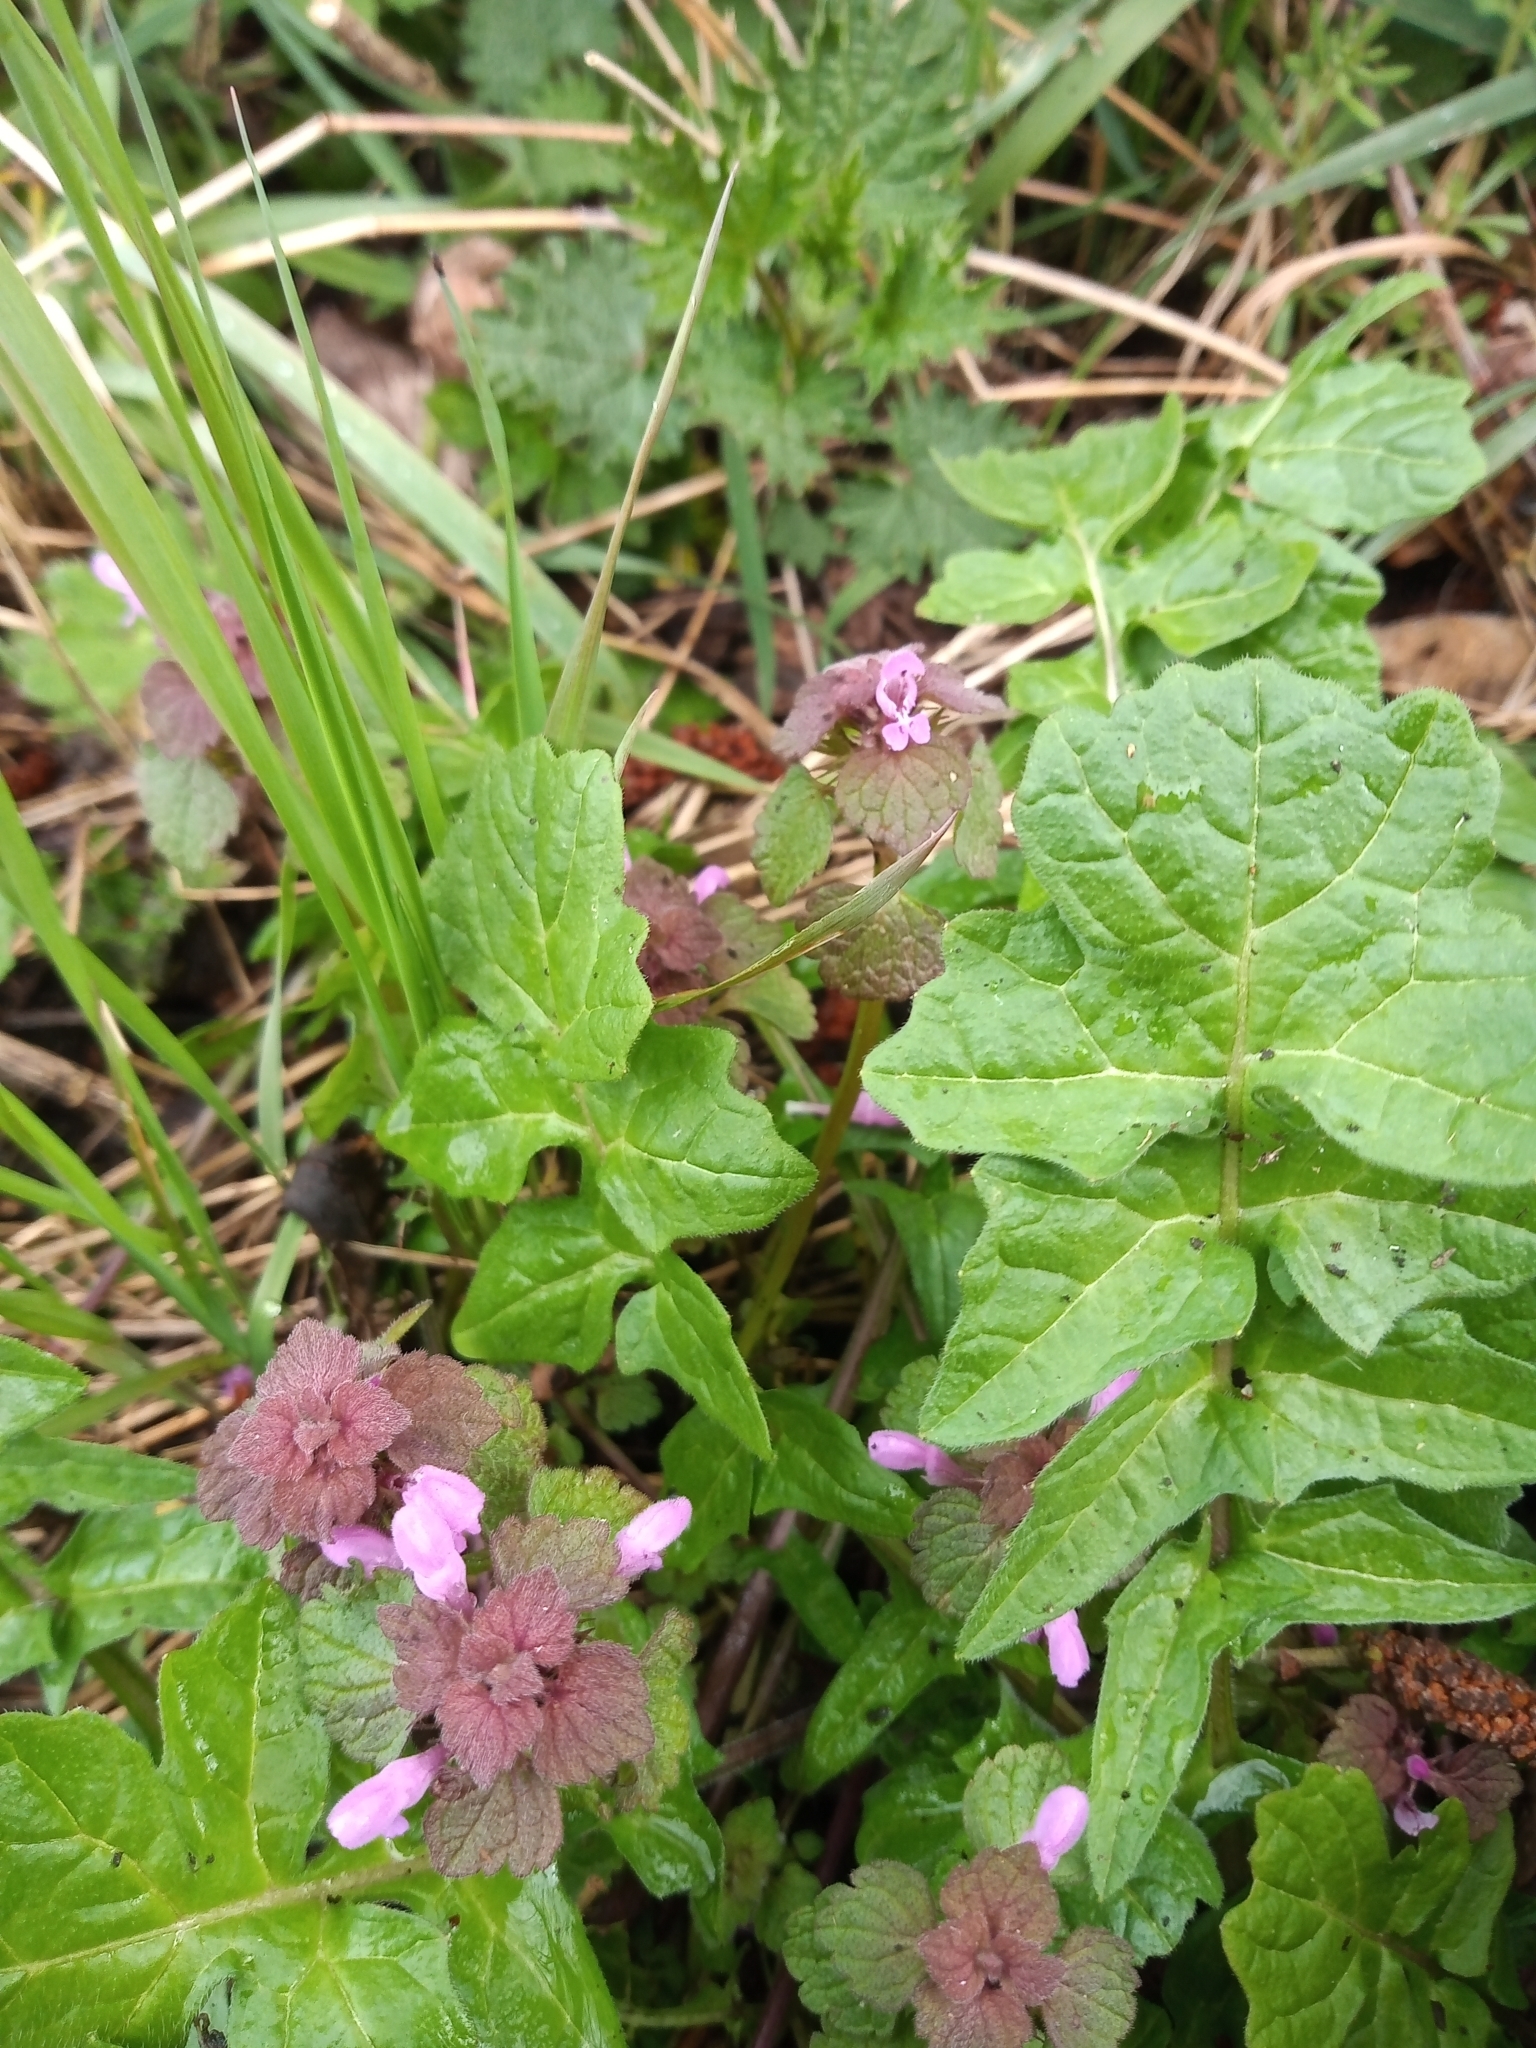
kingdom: Plantae
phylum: Tracheophyta
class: Magnoliopsida
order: Lamiales
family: Lamiaceae
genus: Lamium
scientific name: Lamium purpureum
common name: Red dead-nettle
